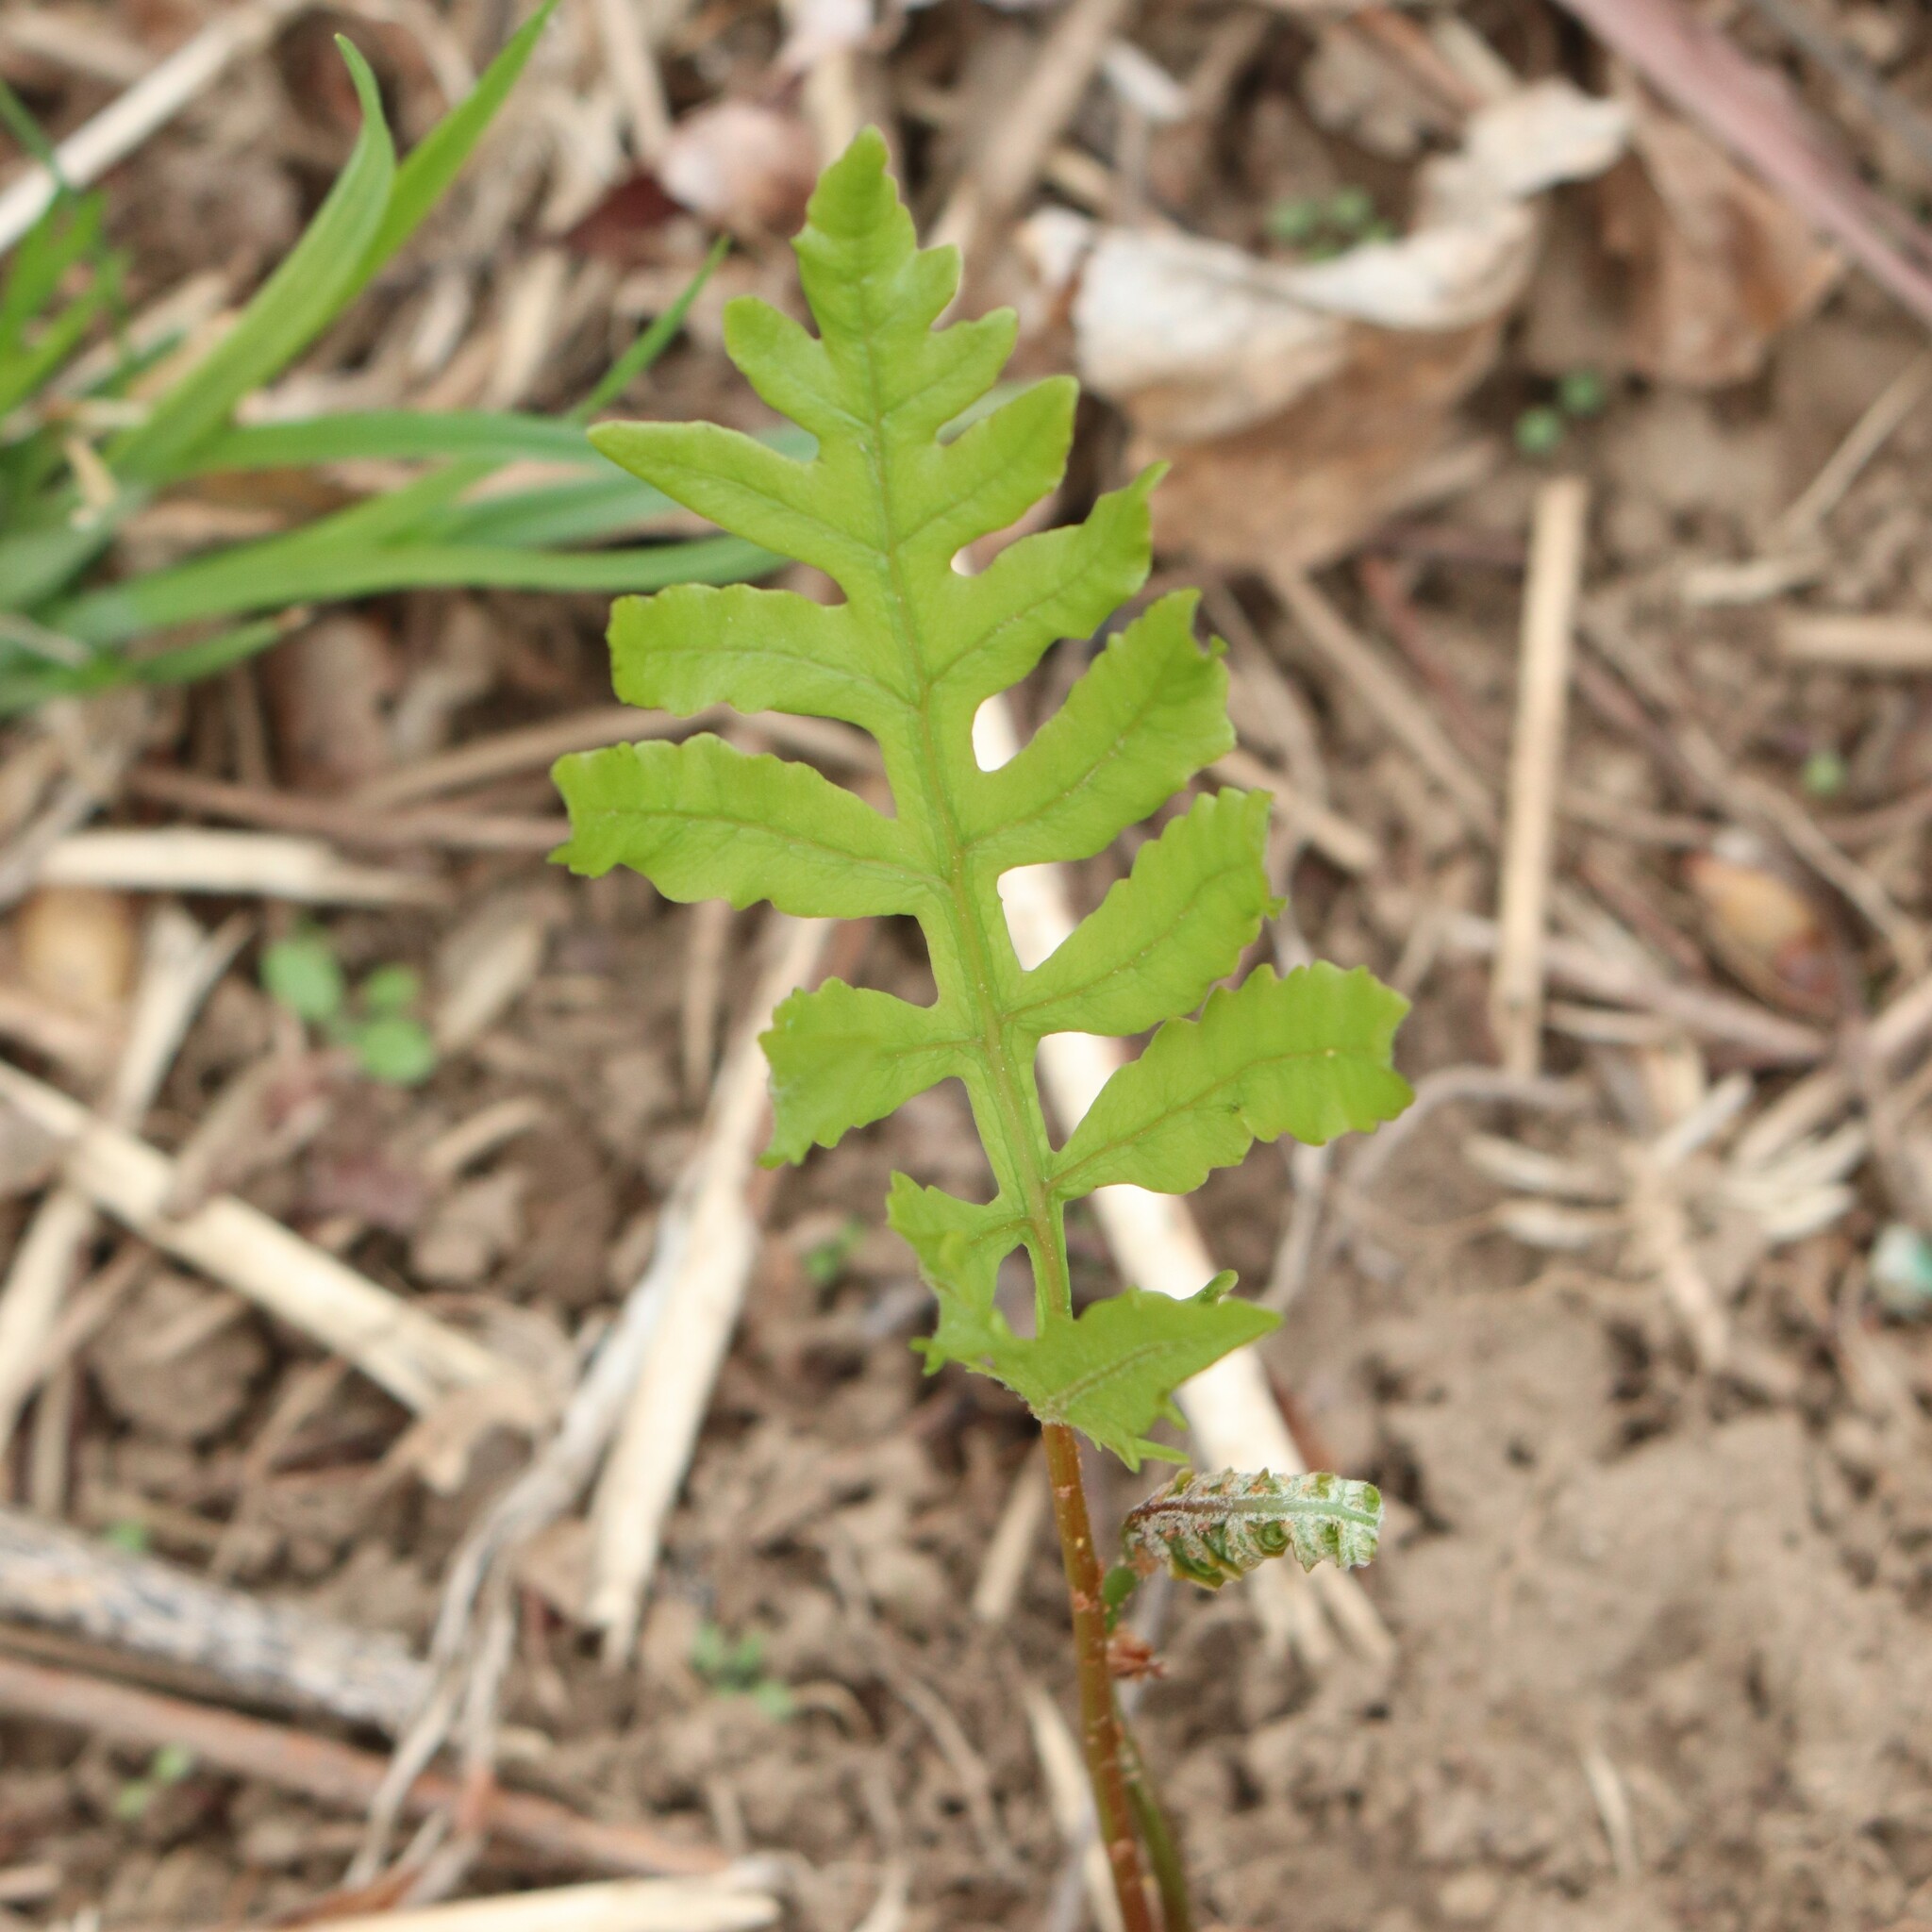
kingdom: Plantae
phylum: Tracheophyta
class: Polypodiopsida
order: Polypodiales
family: Onocleaceae
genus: Onoclea
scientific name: Onoclea sensibilis
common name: Sensitive fern
